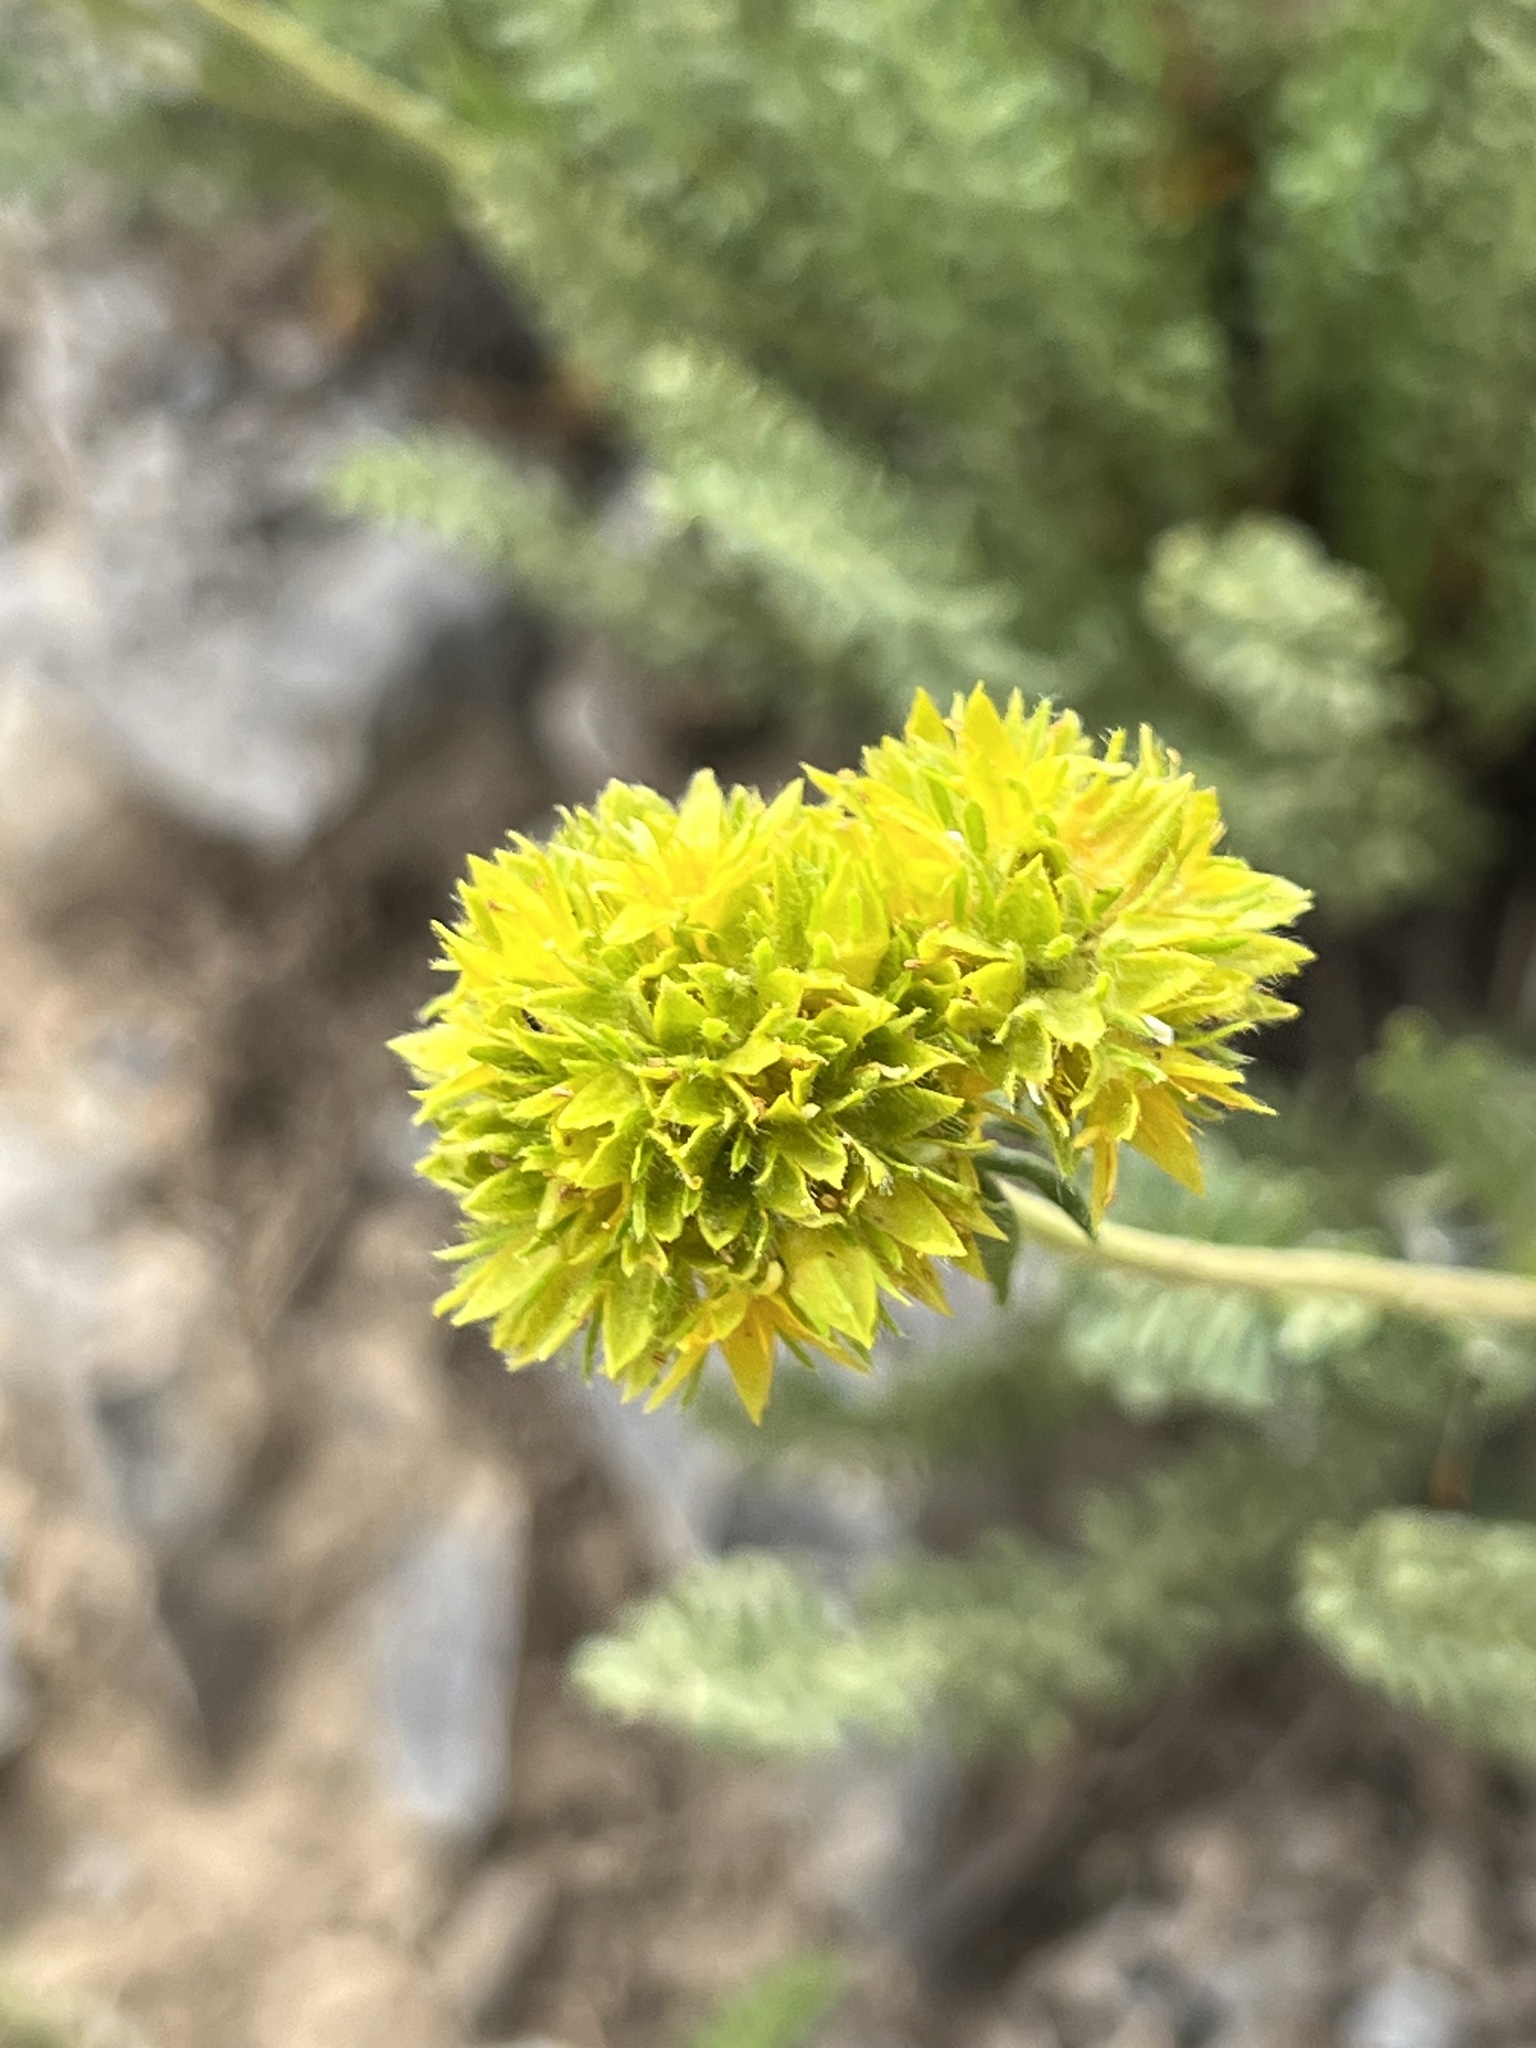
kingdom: Plantae
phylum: Tracheophyta
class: Magnoliopsida
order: Rosales
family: Rosaceae
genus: Potentilla
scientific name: Potentilla gordonii
